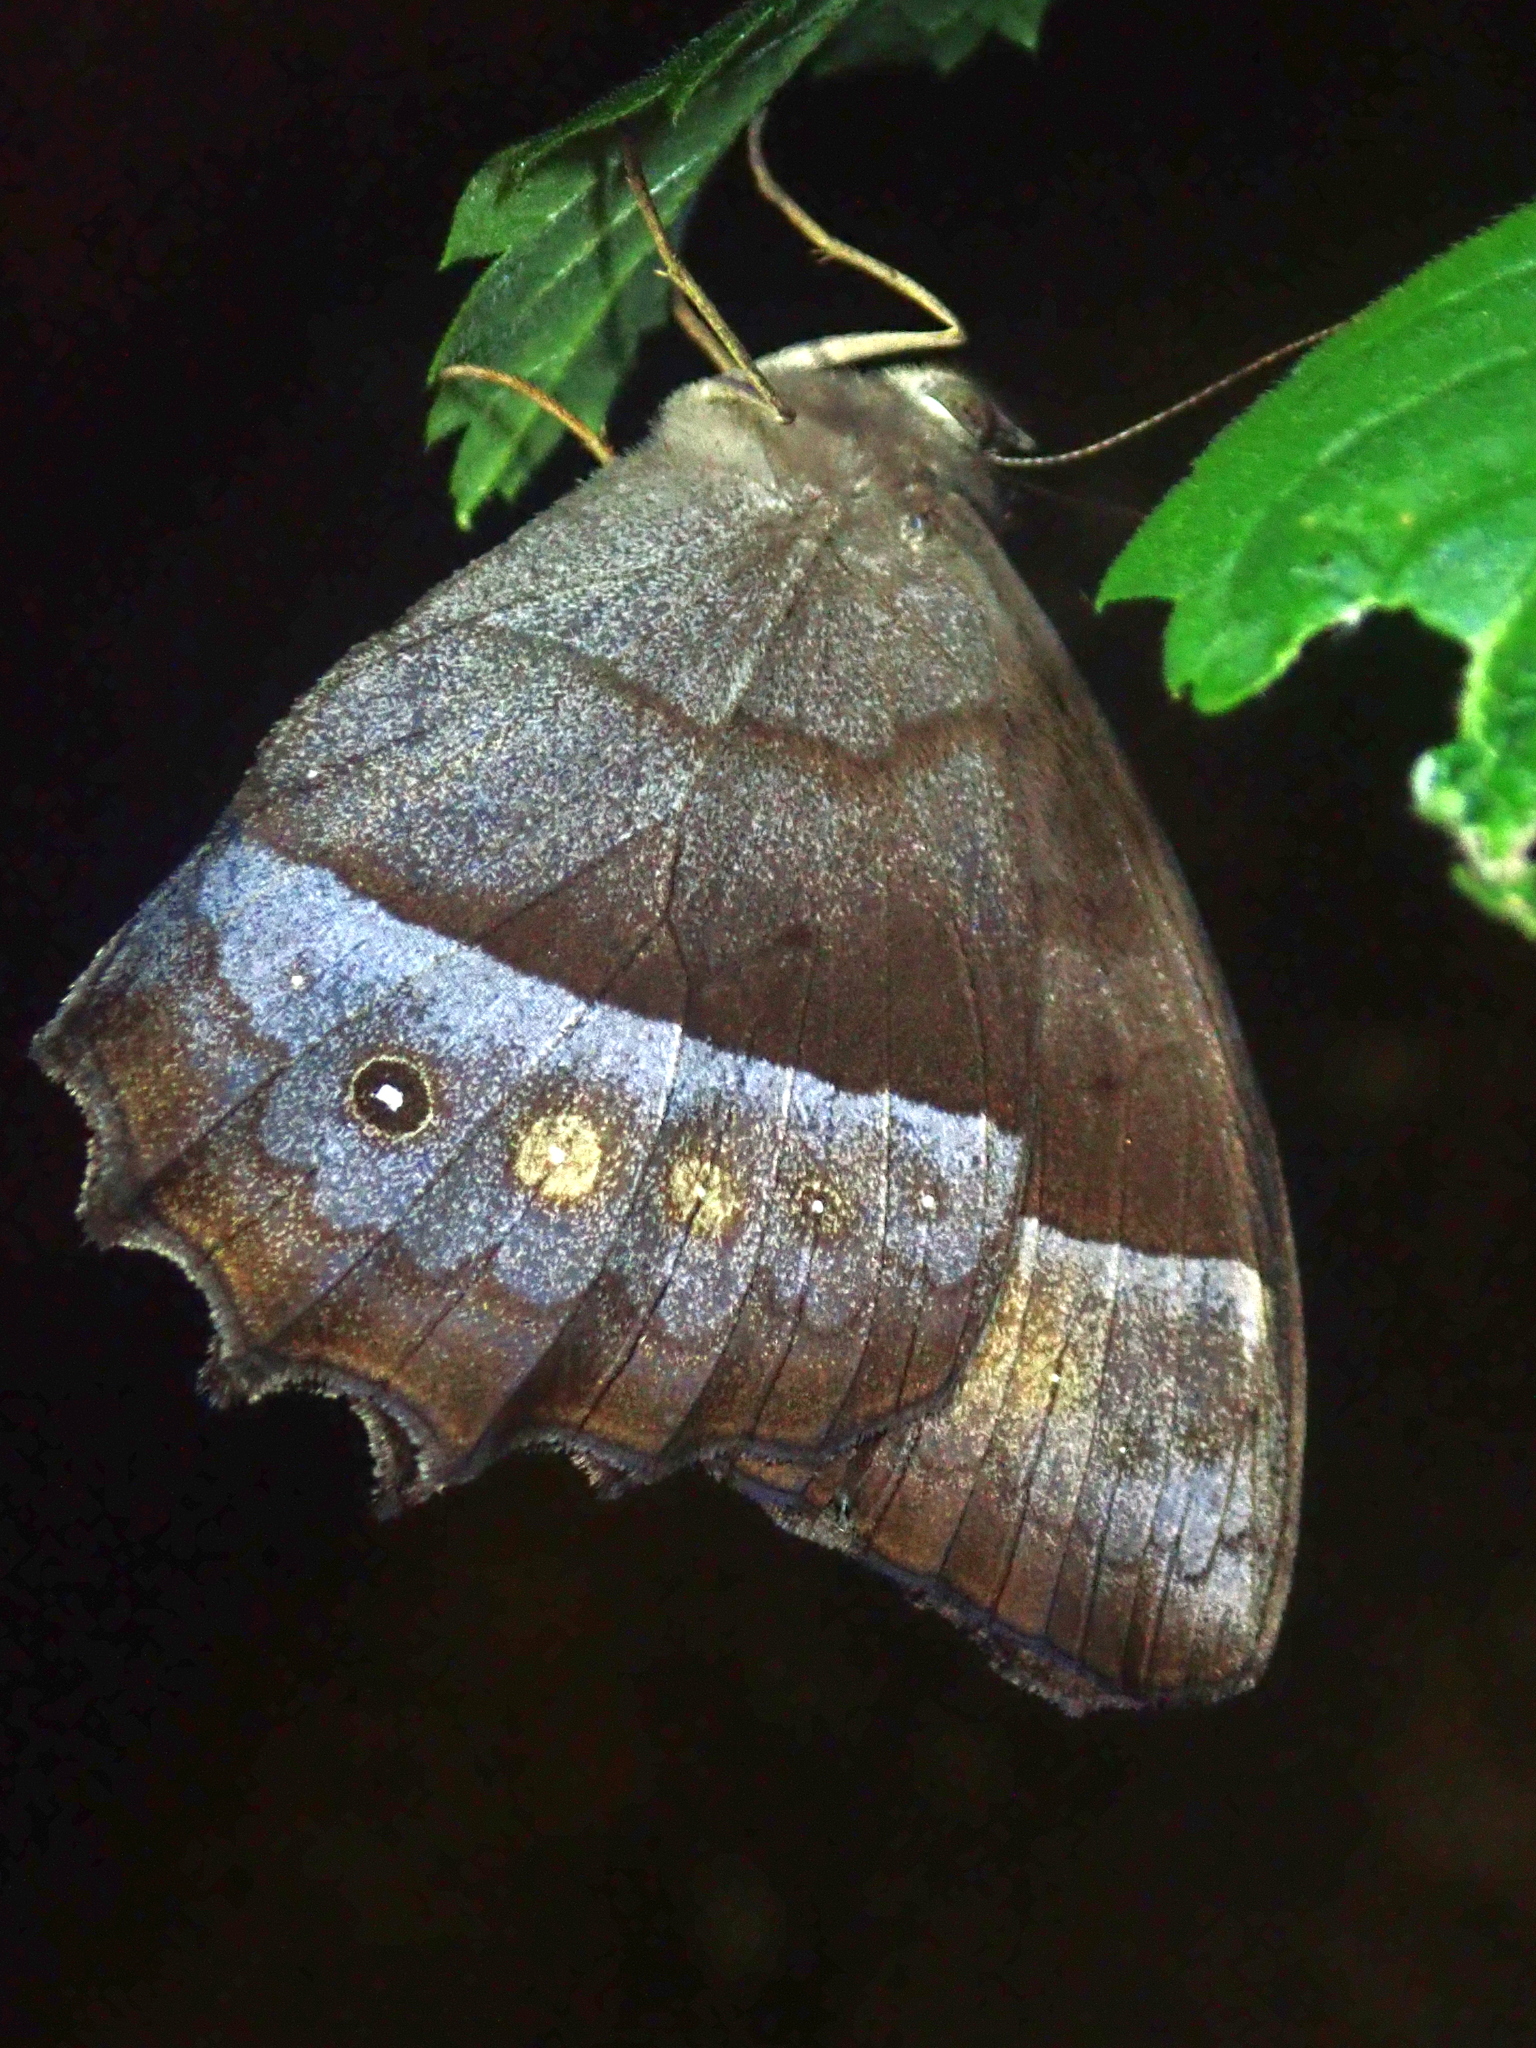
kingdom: Animalia
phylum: Arthropoda
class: Insecta
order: Lepidoptera
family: Nymphalidae
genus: Taygetis
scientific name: Taygetis thamyra
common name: Thamyra satyr
